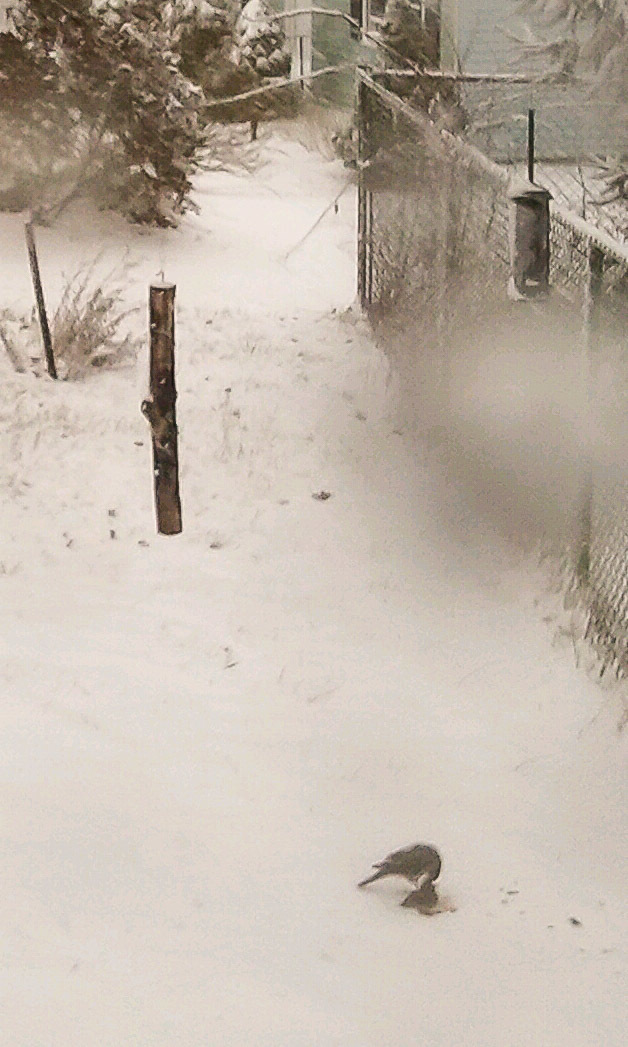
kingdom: Animalia
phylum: Chordata
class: Aves
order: Accipitriformes
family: Accipitridae
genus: Accipiter
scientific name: Accipiter cooperii
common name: Cooper's hawk
